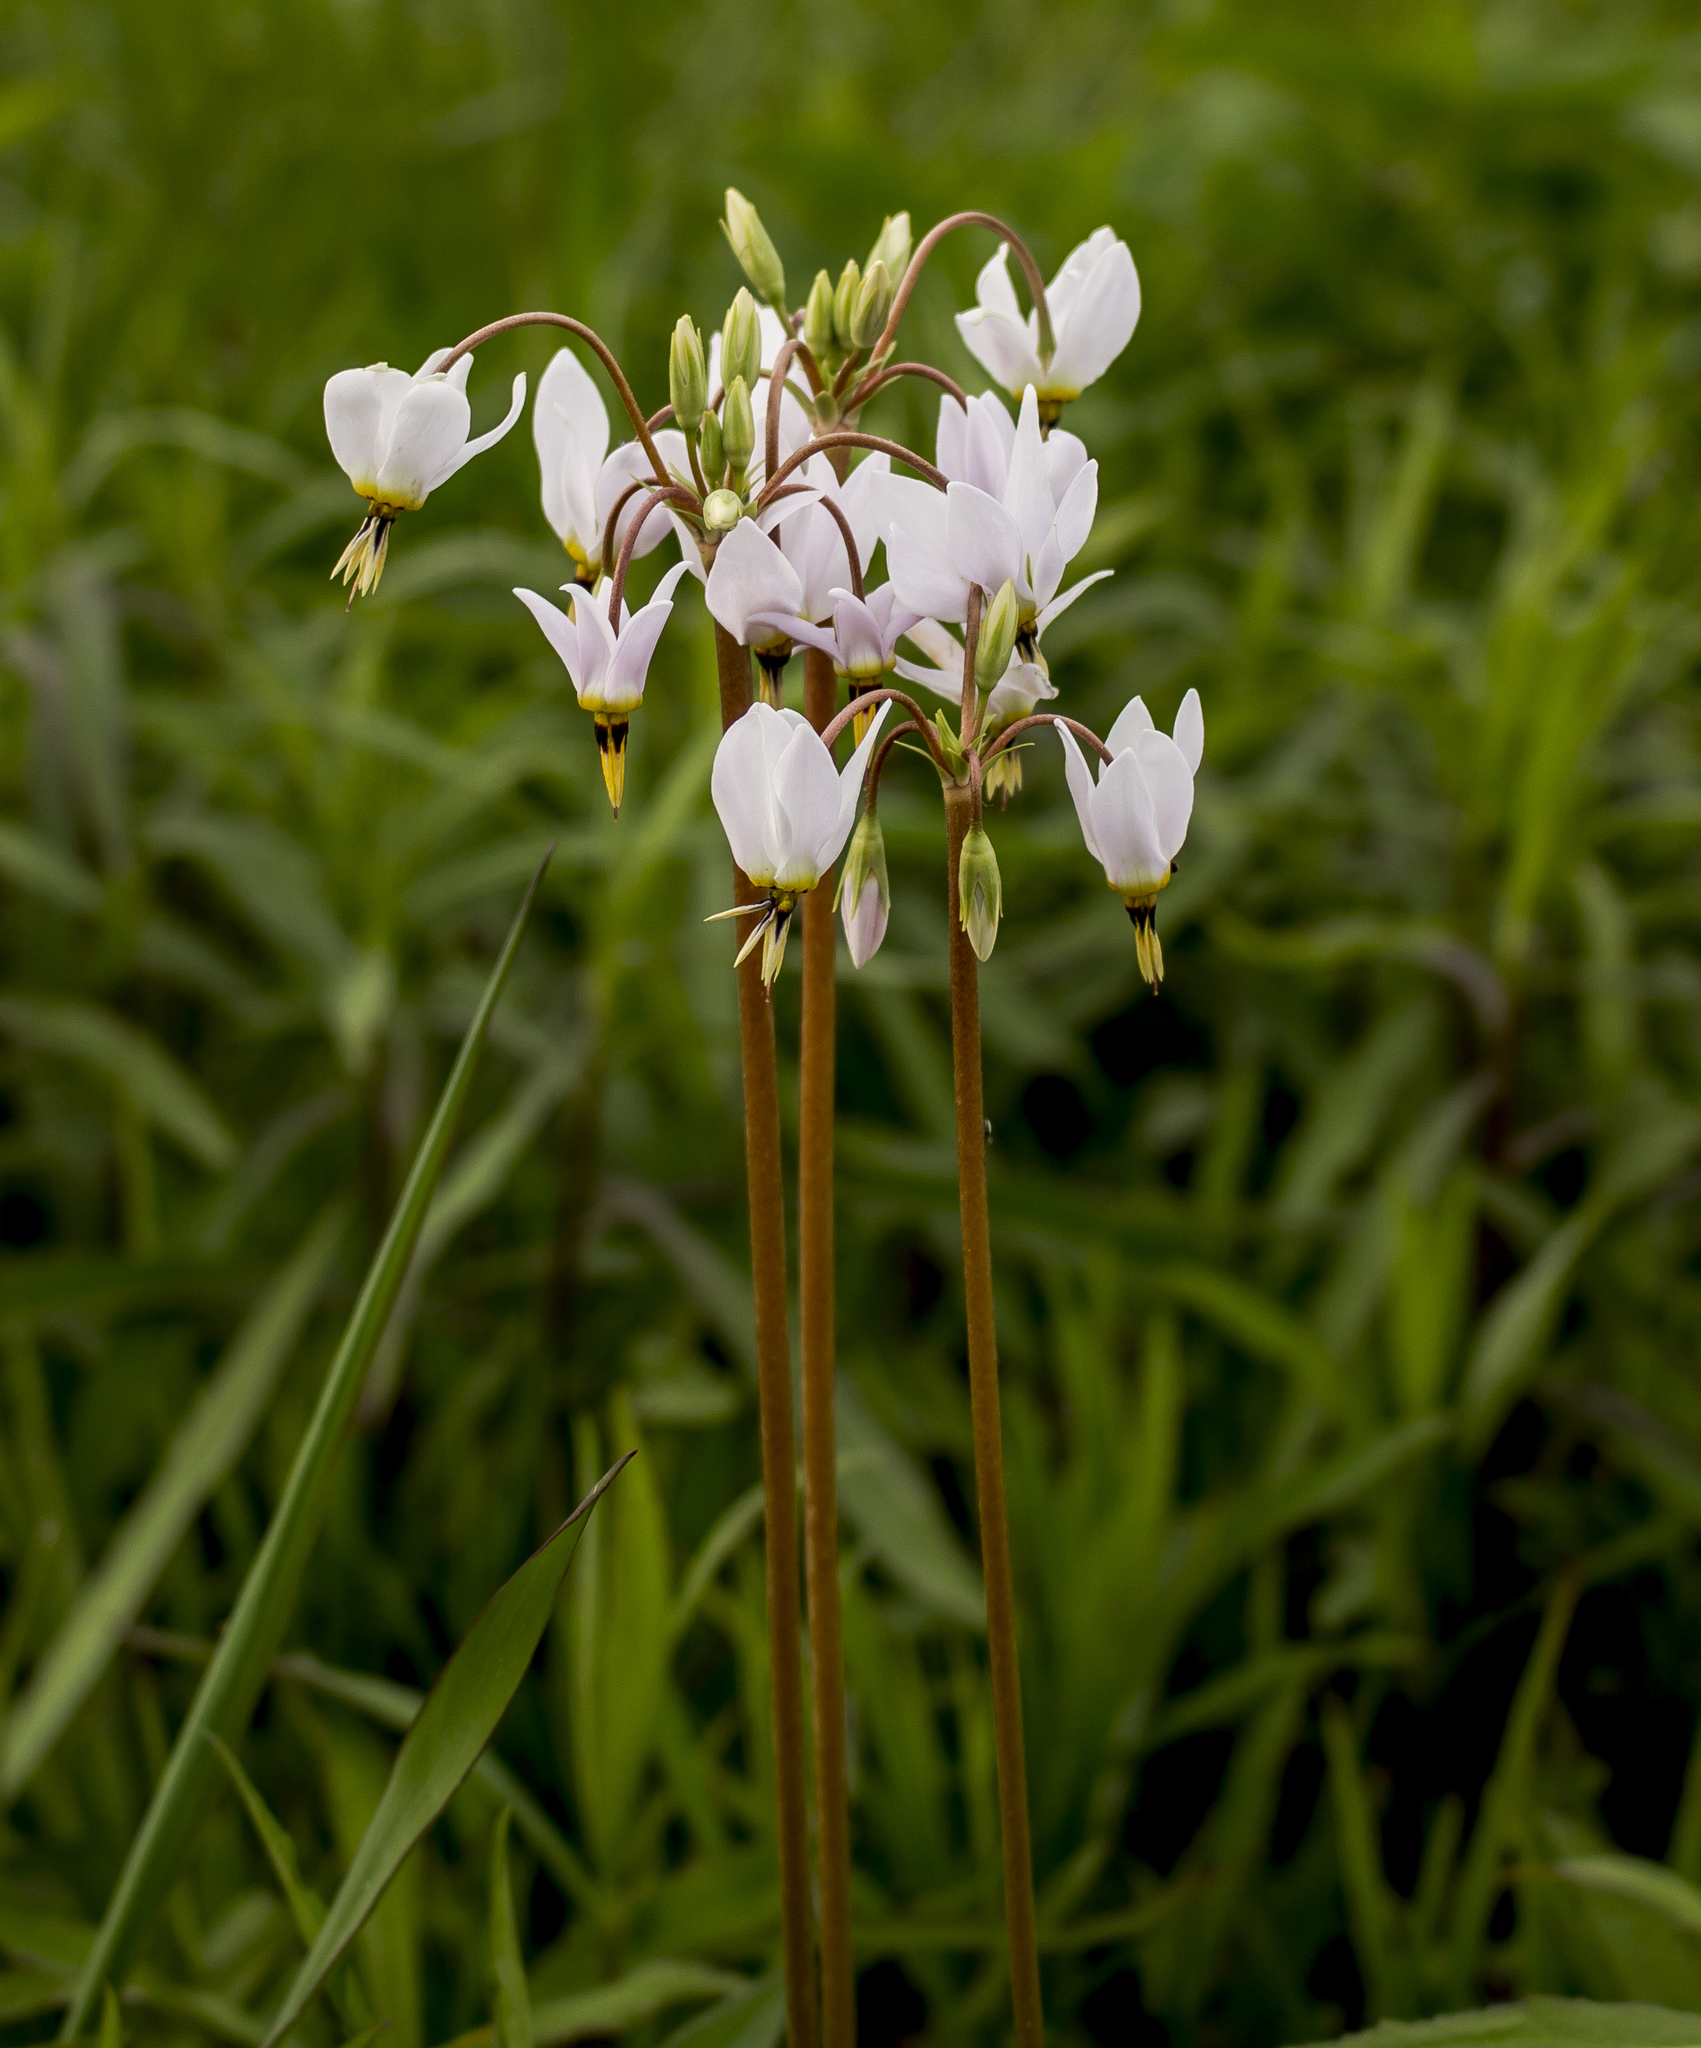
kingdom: Plantae
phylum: Tracheophyta
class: Magnoliopsida
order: Ericales
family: Primulaceae
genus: Dodecatheon
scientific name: Dodecatheon meadia
